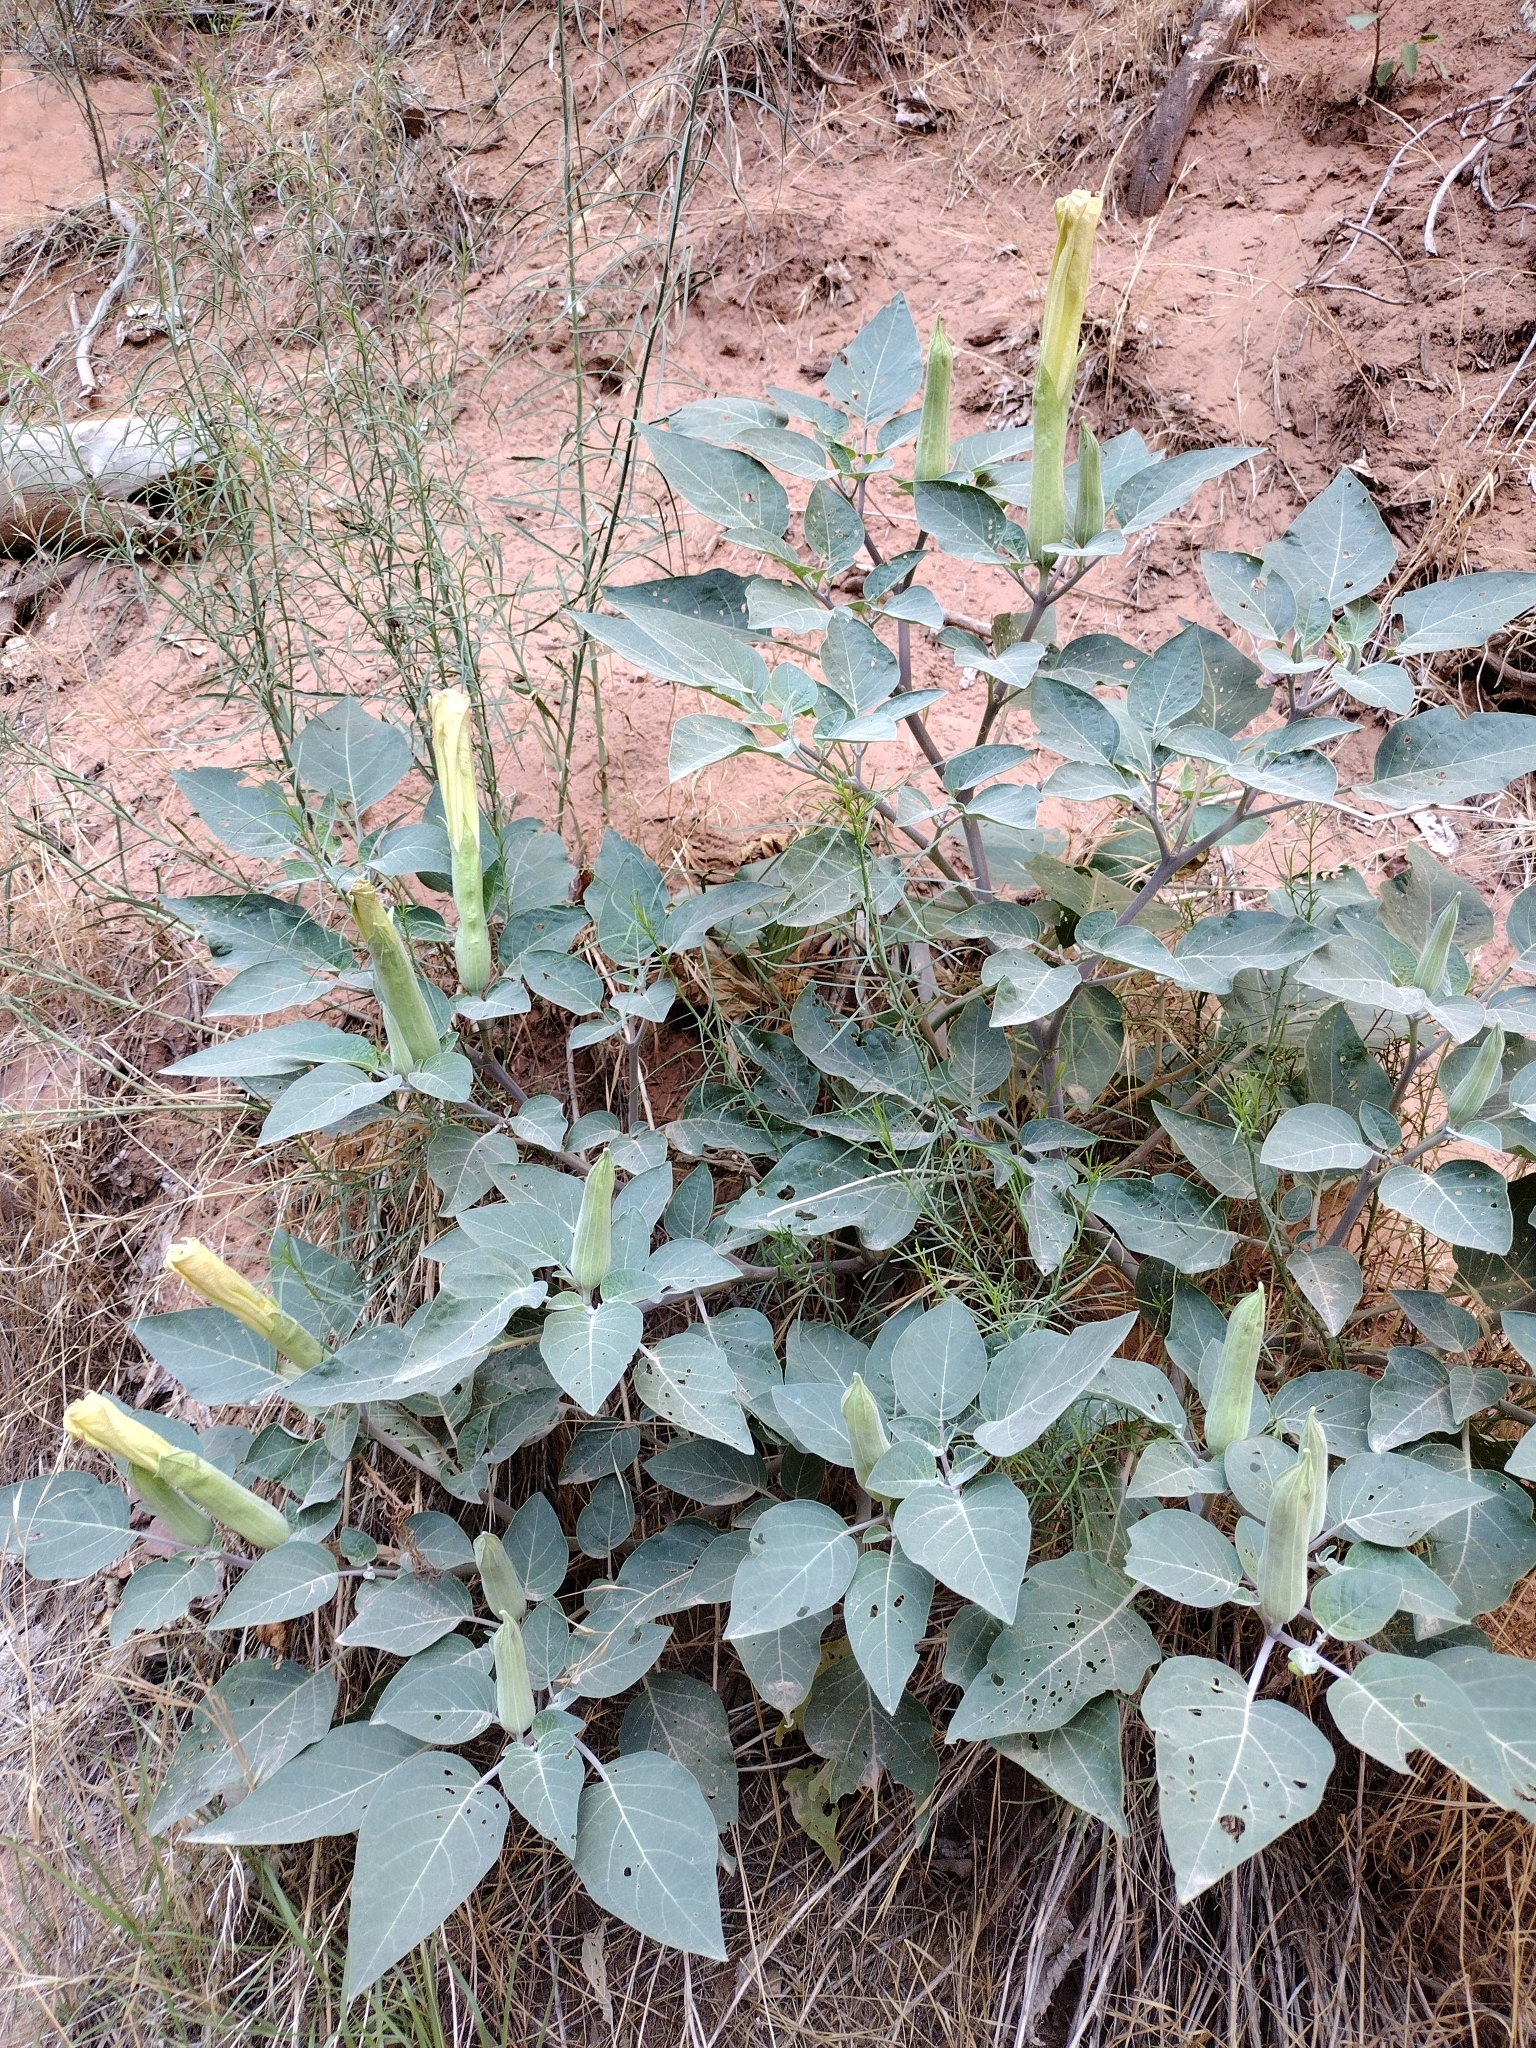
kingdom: Plantae
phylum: Tracheophyta
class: Magnoliopsida
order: Solanales
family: Solanaceae
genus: Datura
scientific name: Datura wrightii
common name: Sacred thorn-apple
